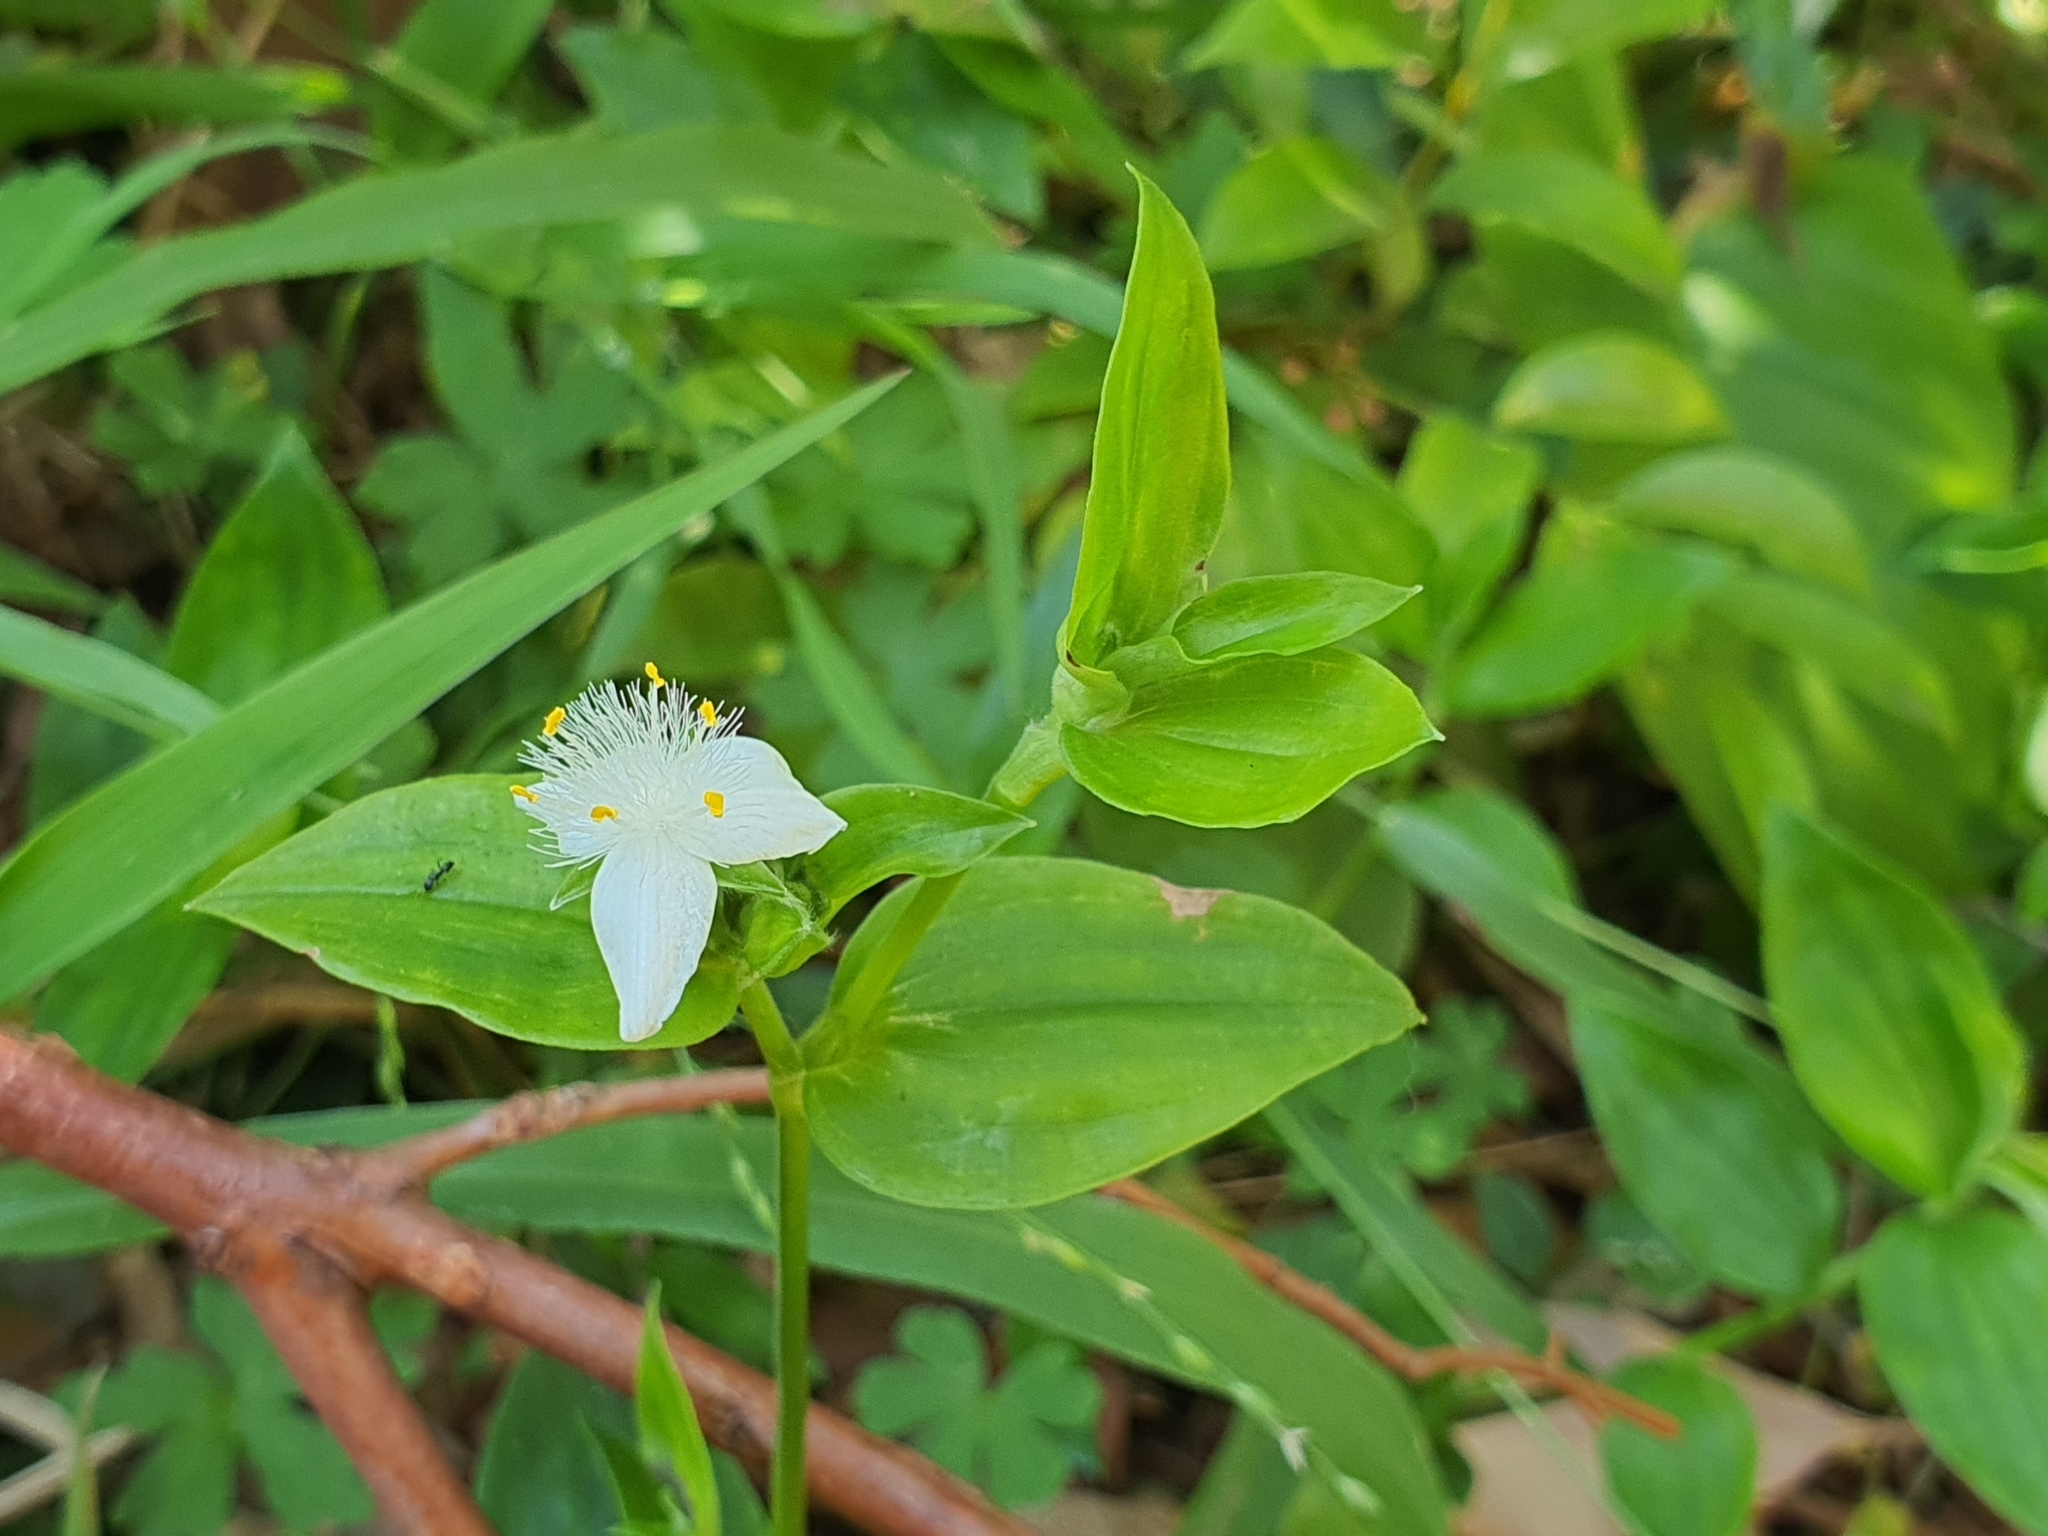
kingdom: Plantae
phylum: Tracheophyta
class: Liliopsida
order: Commelinales
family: Commelinaceae
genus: Tradescantia
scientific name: Tradescantia fluminensis
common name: Wandering-jew
